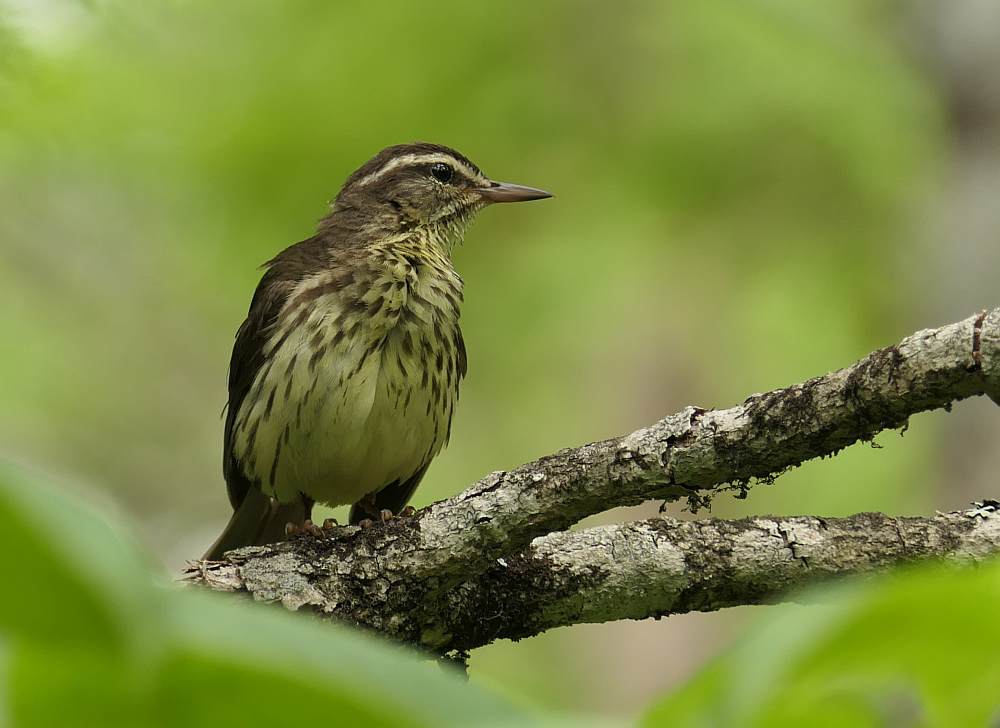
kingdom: Animalia
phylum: Chordata
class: Aves
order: Passeriformes
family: Parulidae
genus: Parkesia
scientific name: Parkesia noveboracensis
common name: Northern waterthrush
